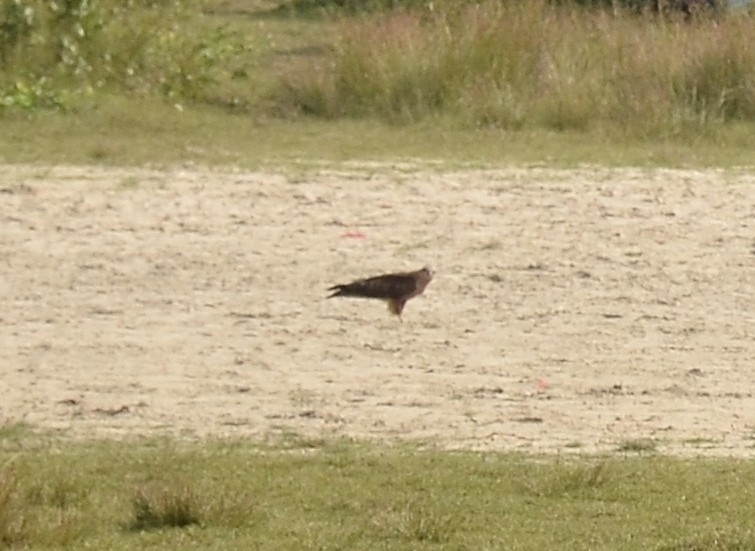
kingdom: Animalia
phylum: Chordata
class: Aves
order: Accipitriformes
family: Accipitridae
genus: Milvus
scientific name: Milvus migrans
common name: Black kite
